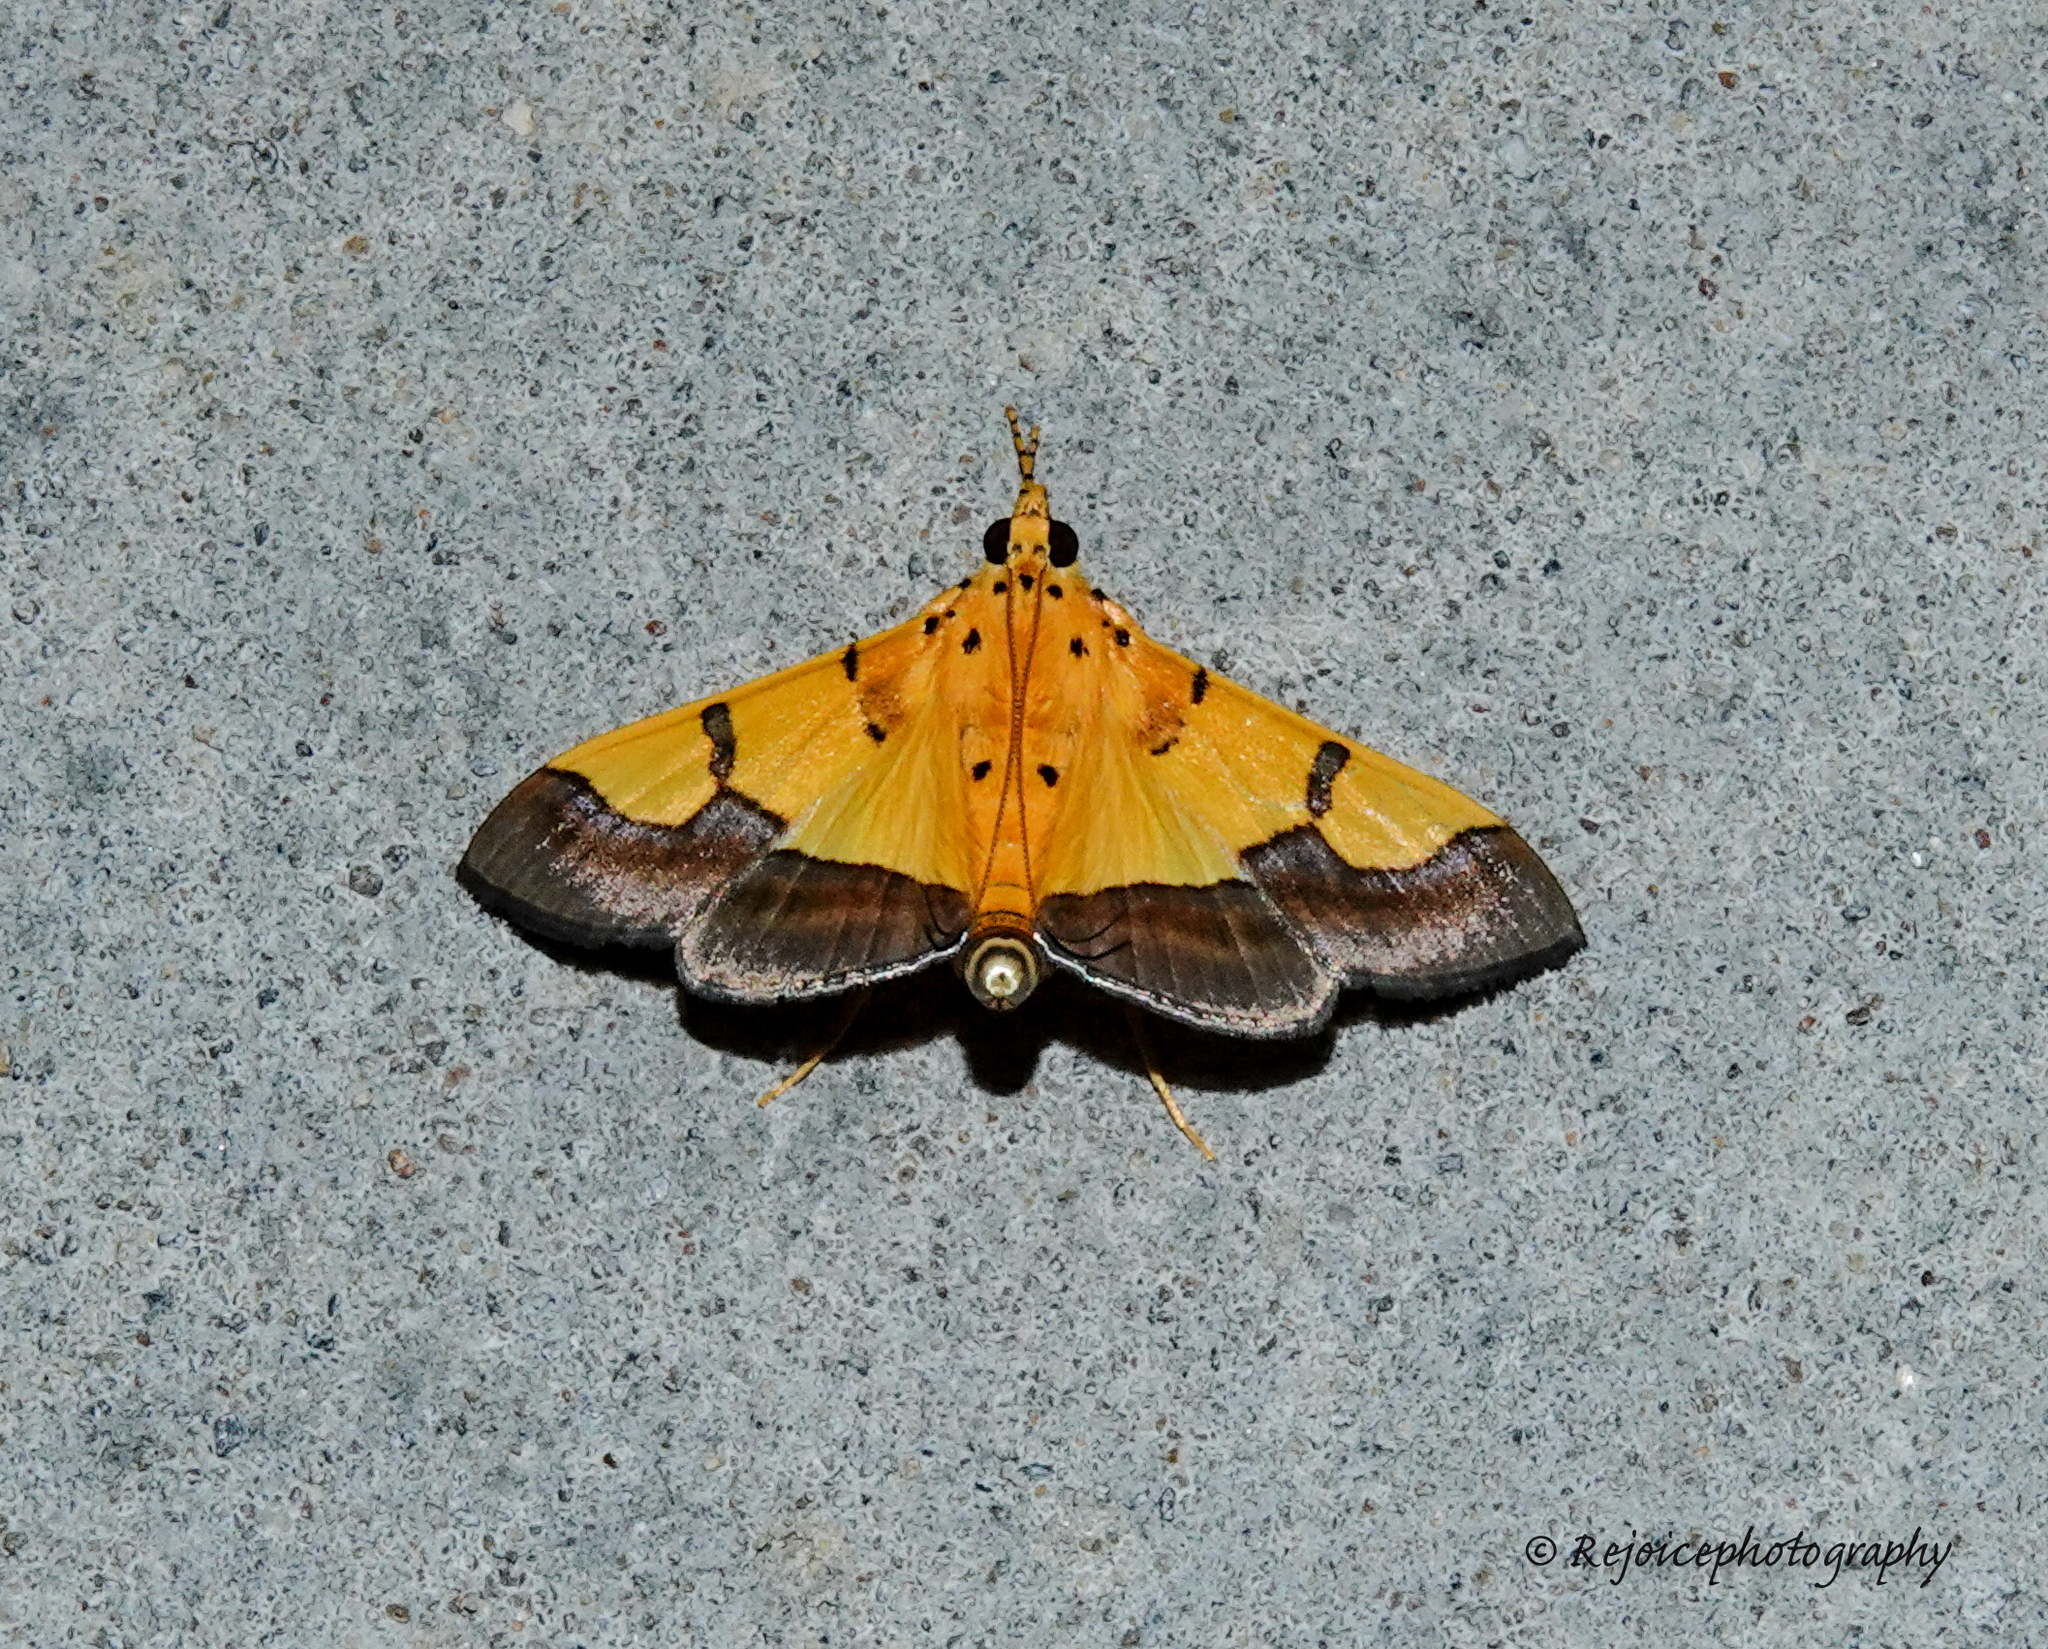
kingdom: Animalia
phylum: Arthropoda
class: Insecta
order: Lepidoptera
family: Crambidae
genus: Botyodes
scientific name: Botyodes
